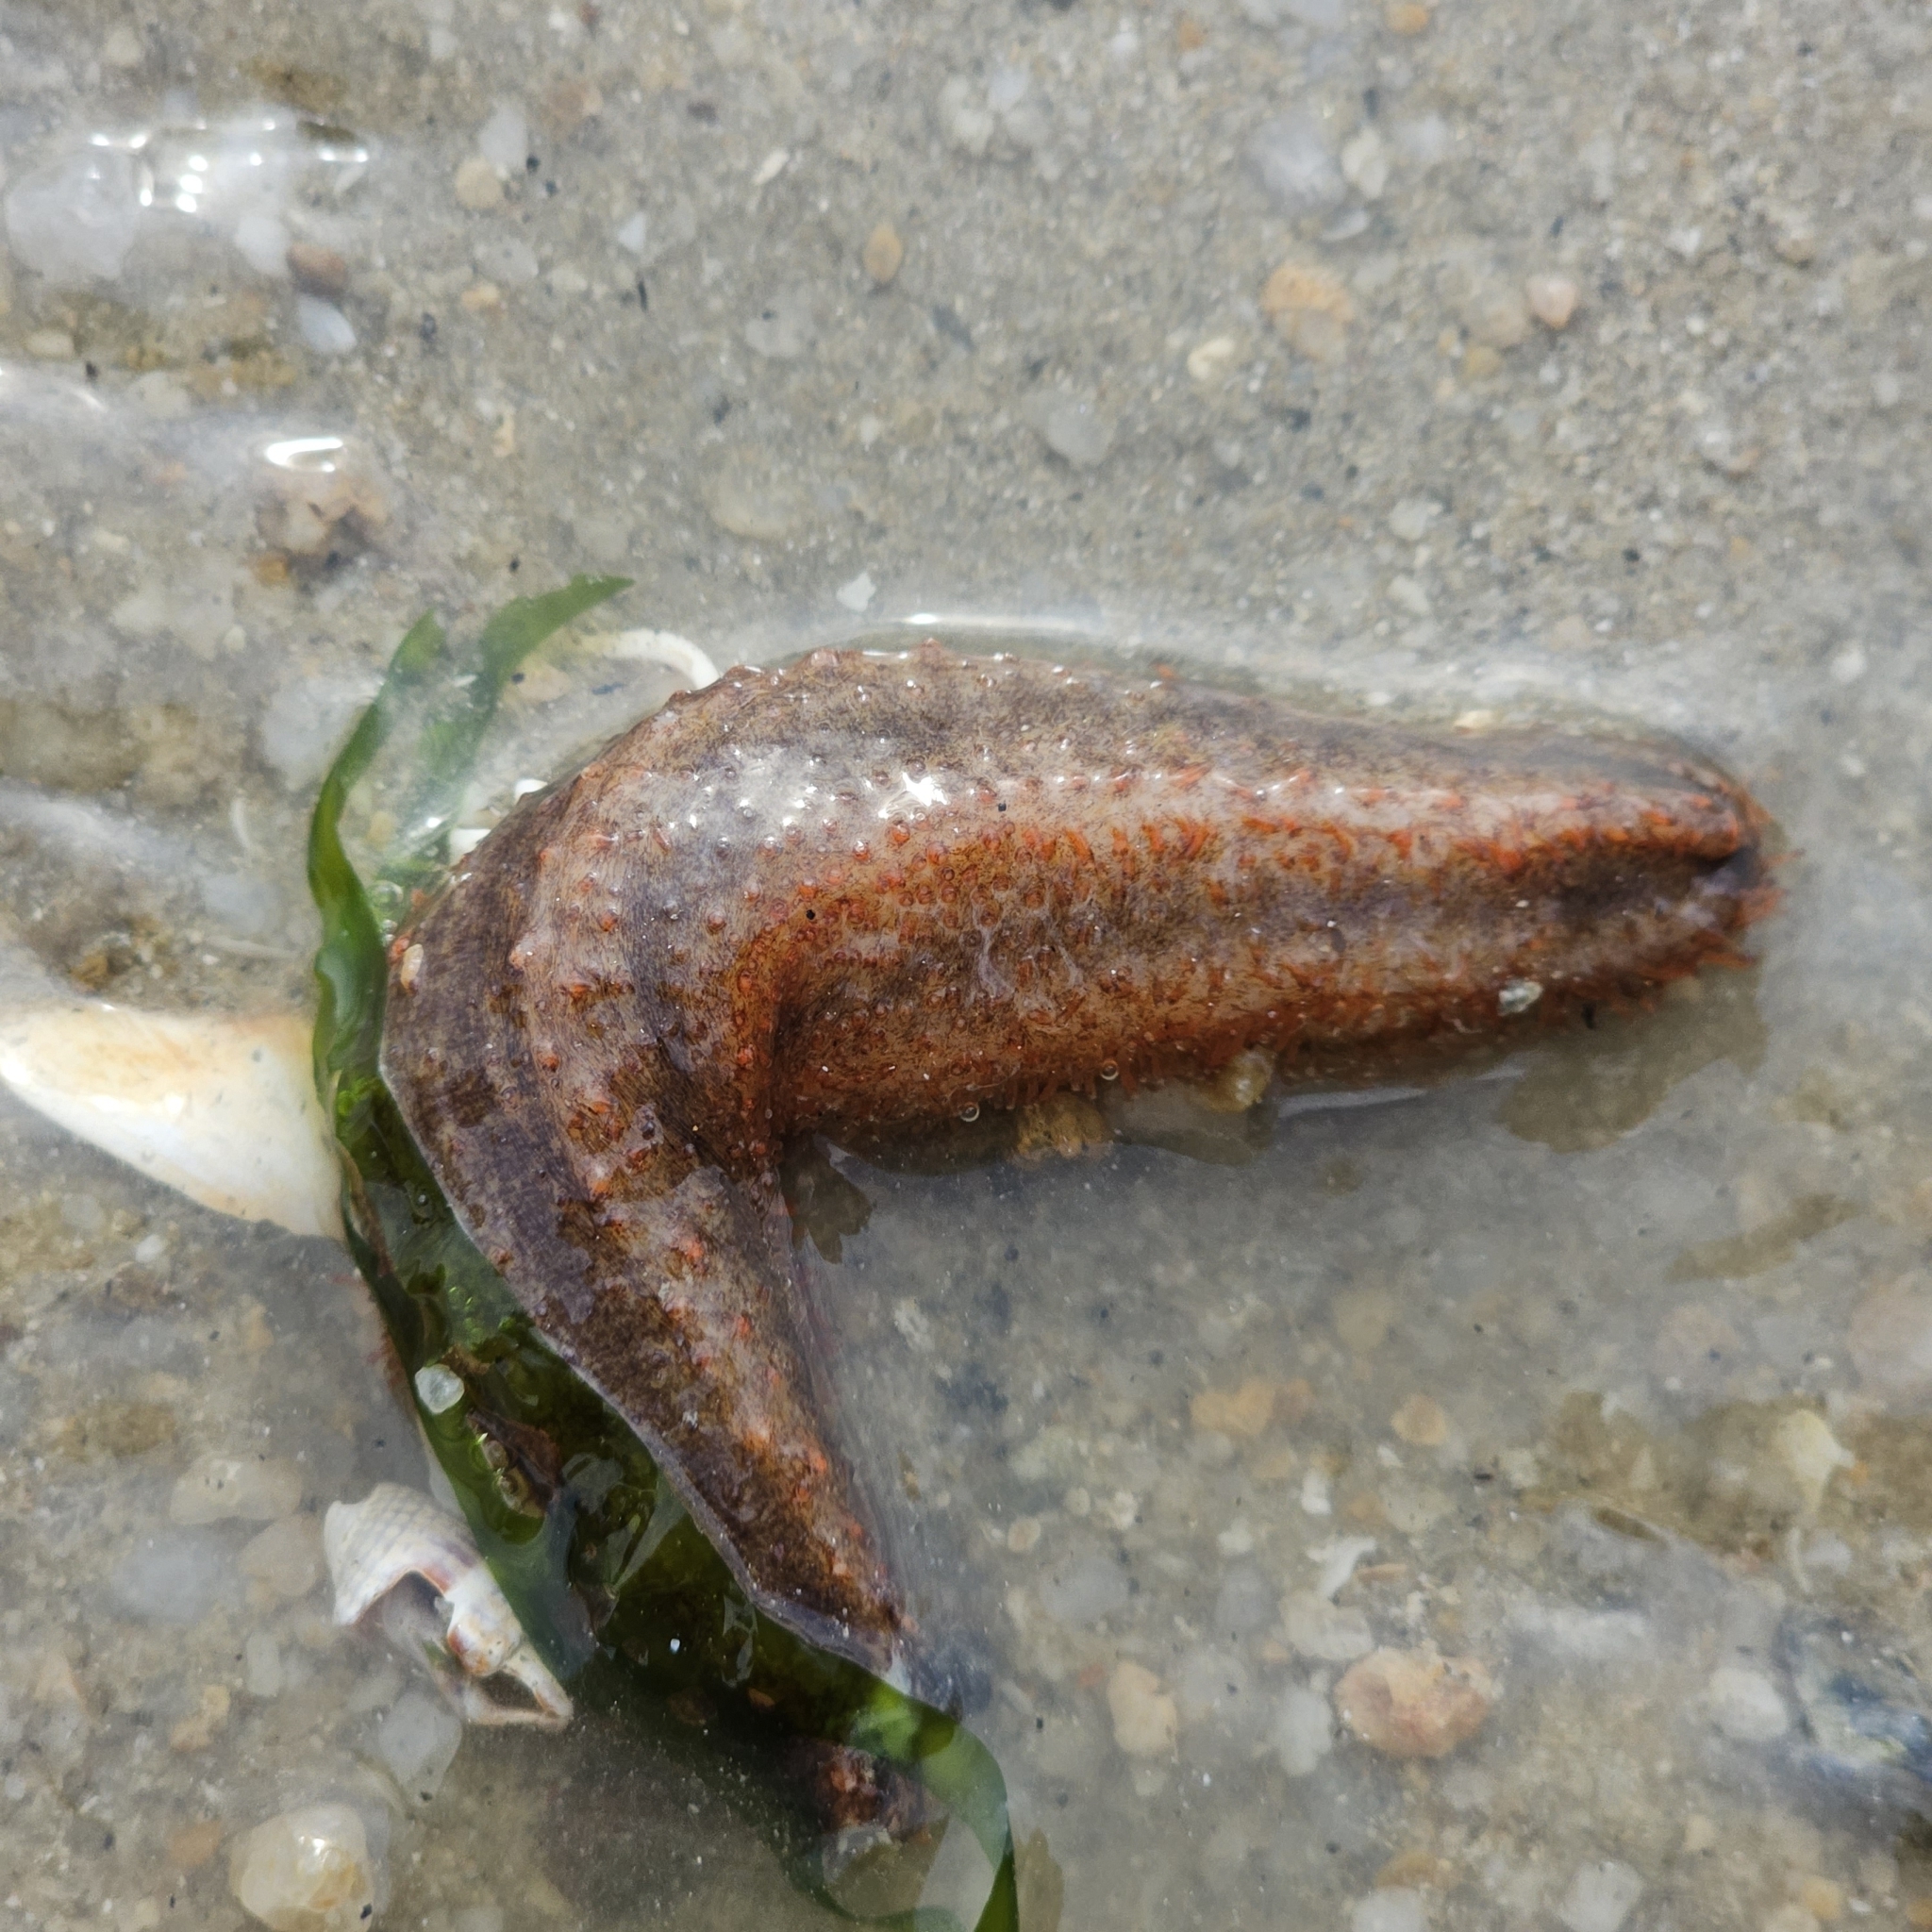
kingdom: Animalia
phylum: Echinodermata
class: Holothuroidea
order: Dendrochirotida
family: Cucumariidae
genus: Mensamaria
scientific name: Mensamaria intercedens
